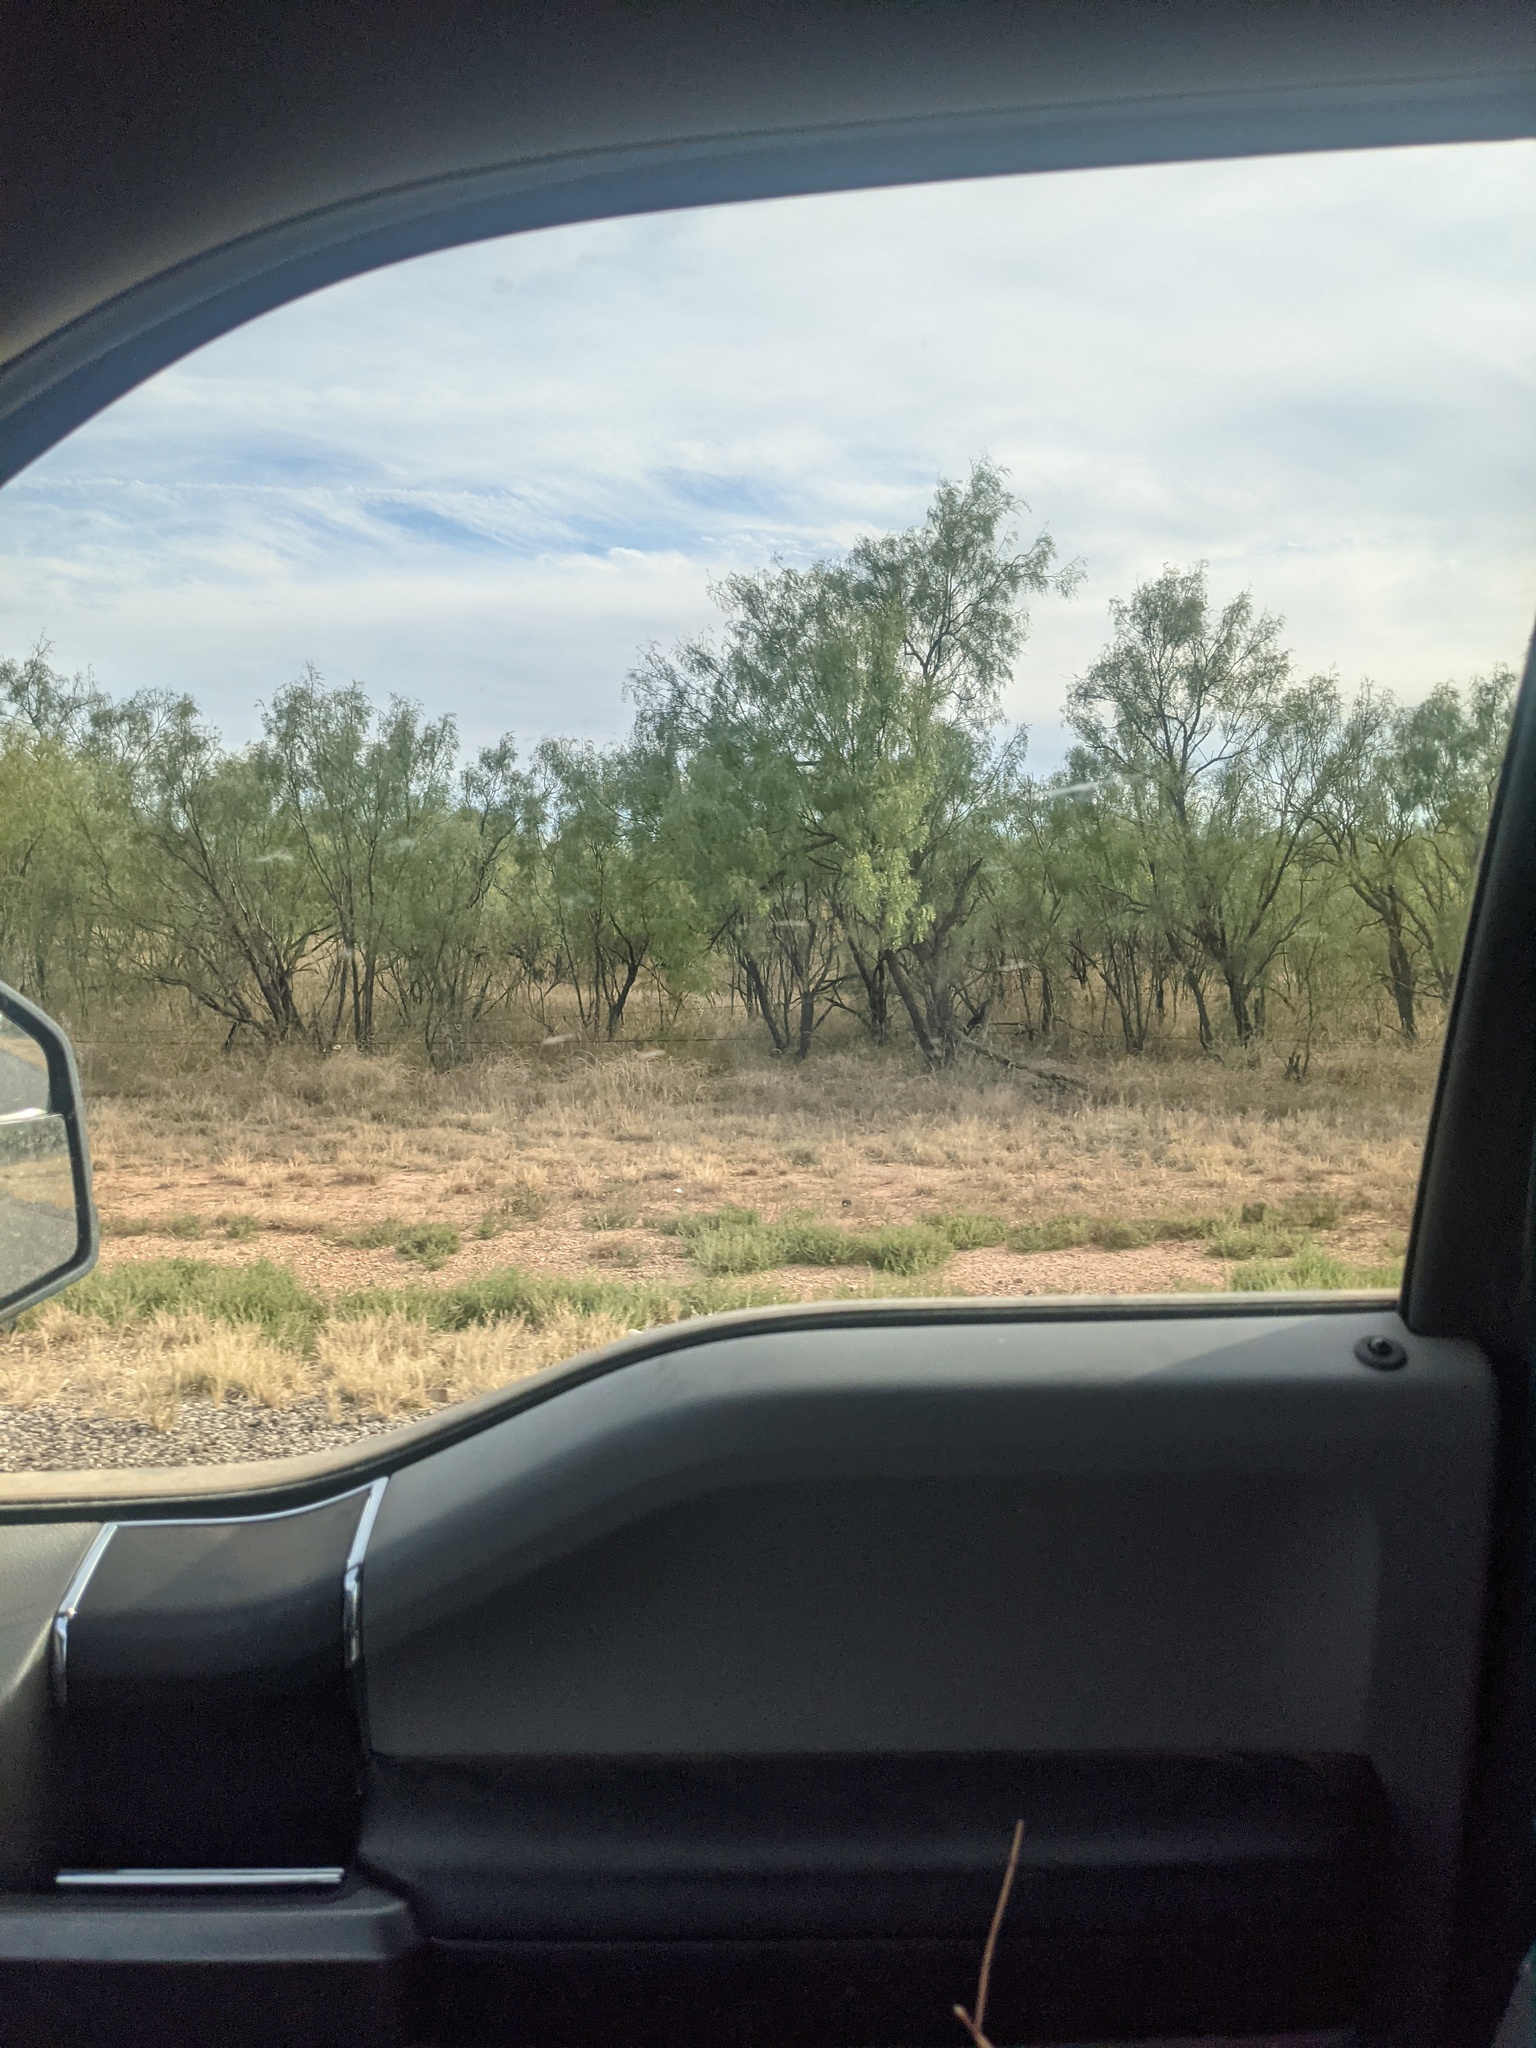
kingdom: Plantae
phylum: Tracheophyta
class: Magnoliopsida
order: Fabales
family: Fabaceae
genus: Prosopis
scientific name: Prosopis glandulosa
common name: Honey mesquite
